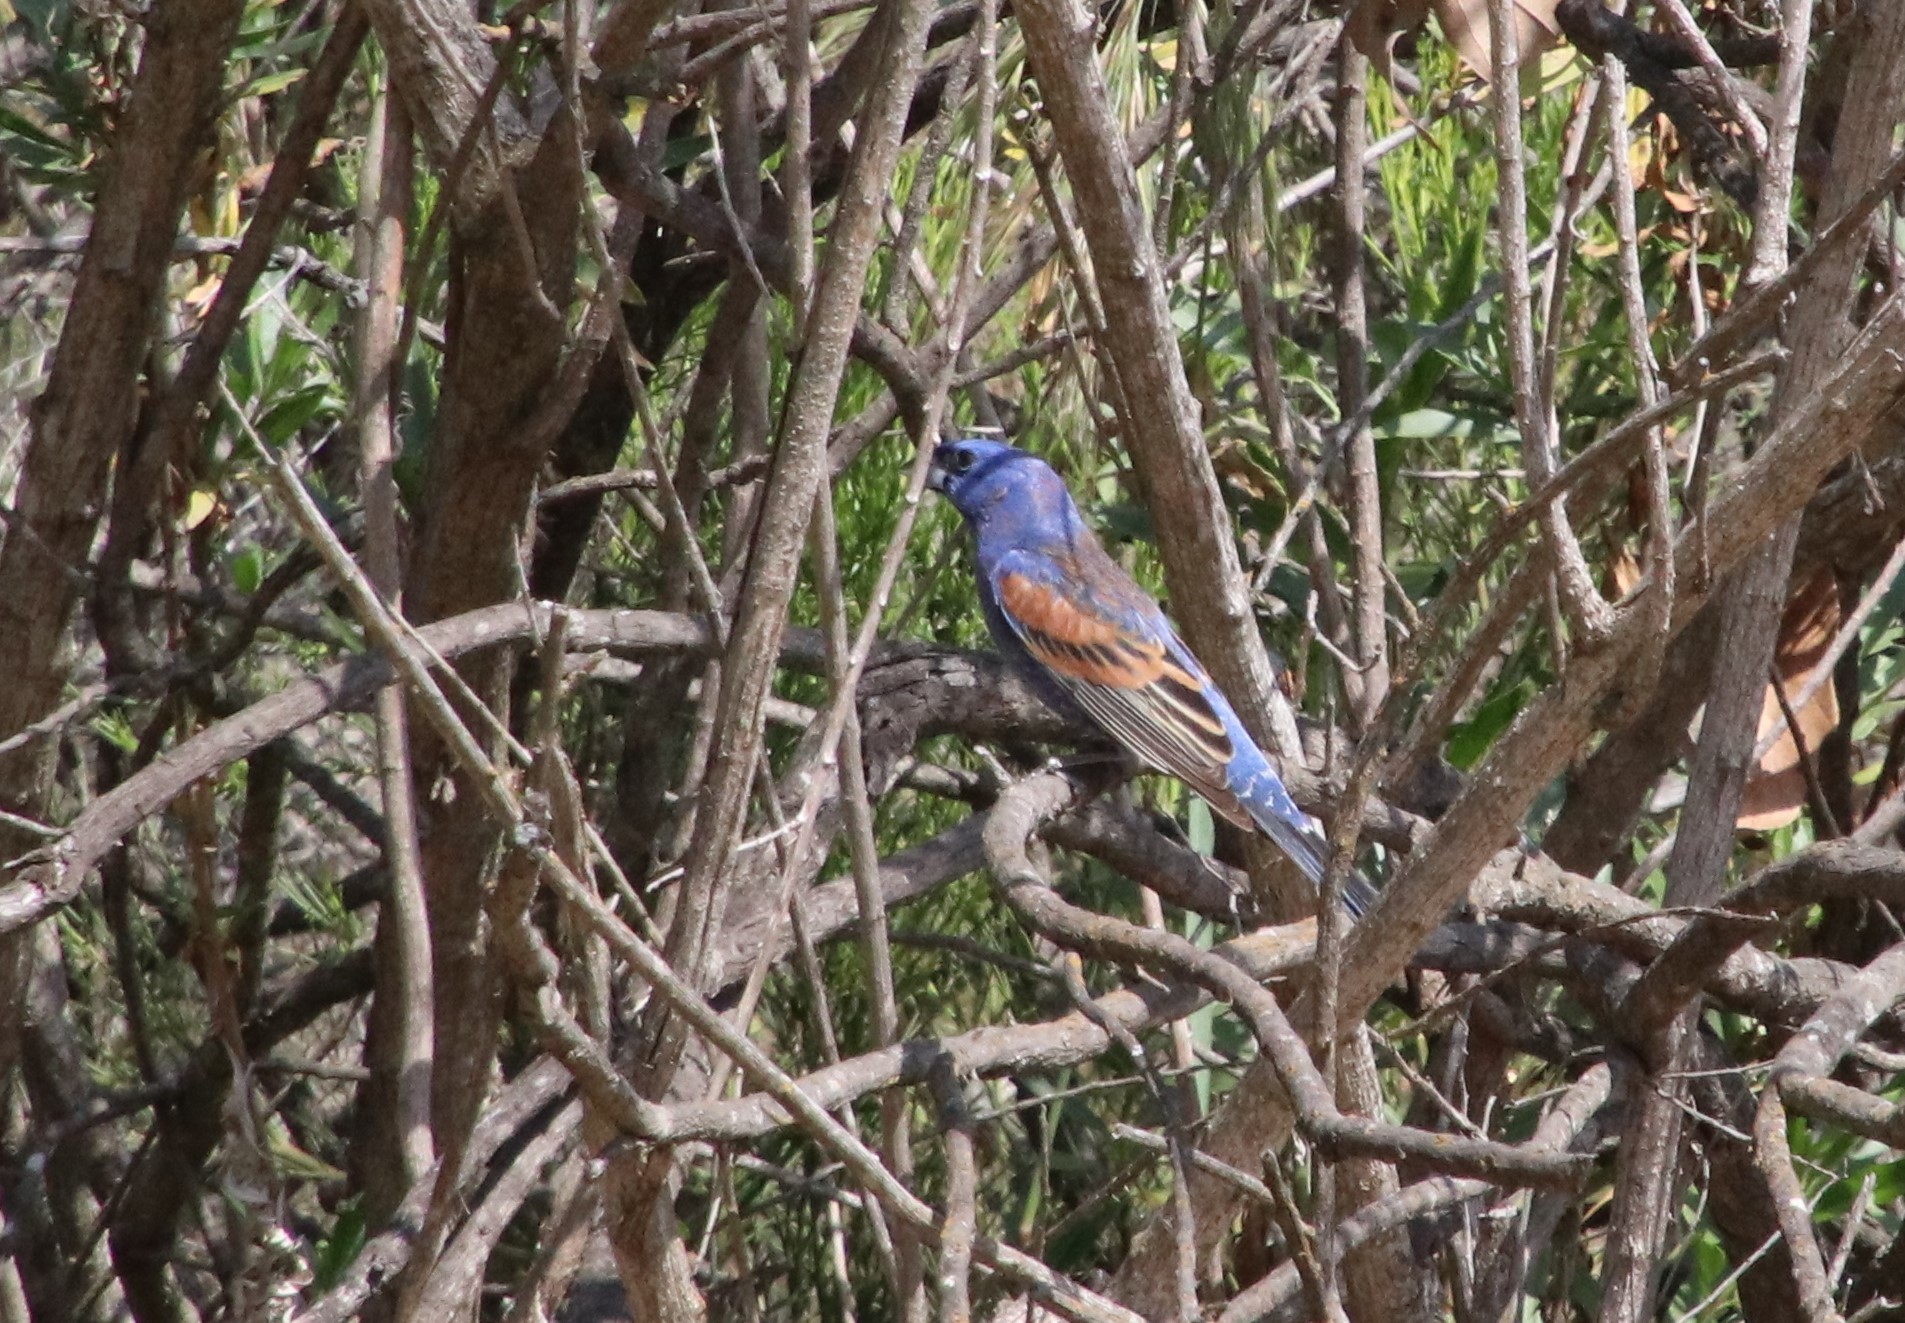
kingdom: Animalia
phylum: Chordata
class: Aves
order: Passeriformes
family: Cardinalidae
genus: Passerina
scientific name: Passerina caerulea
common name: Blue grosbeak
